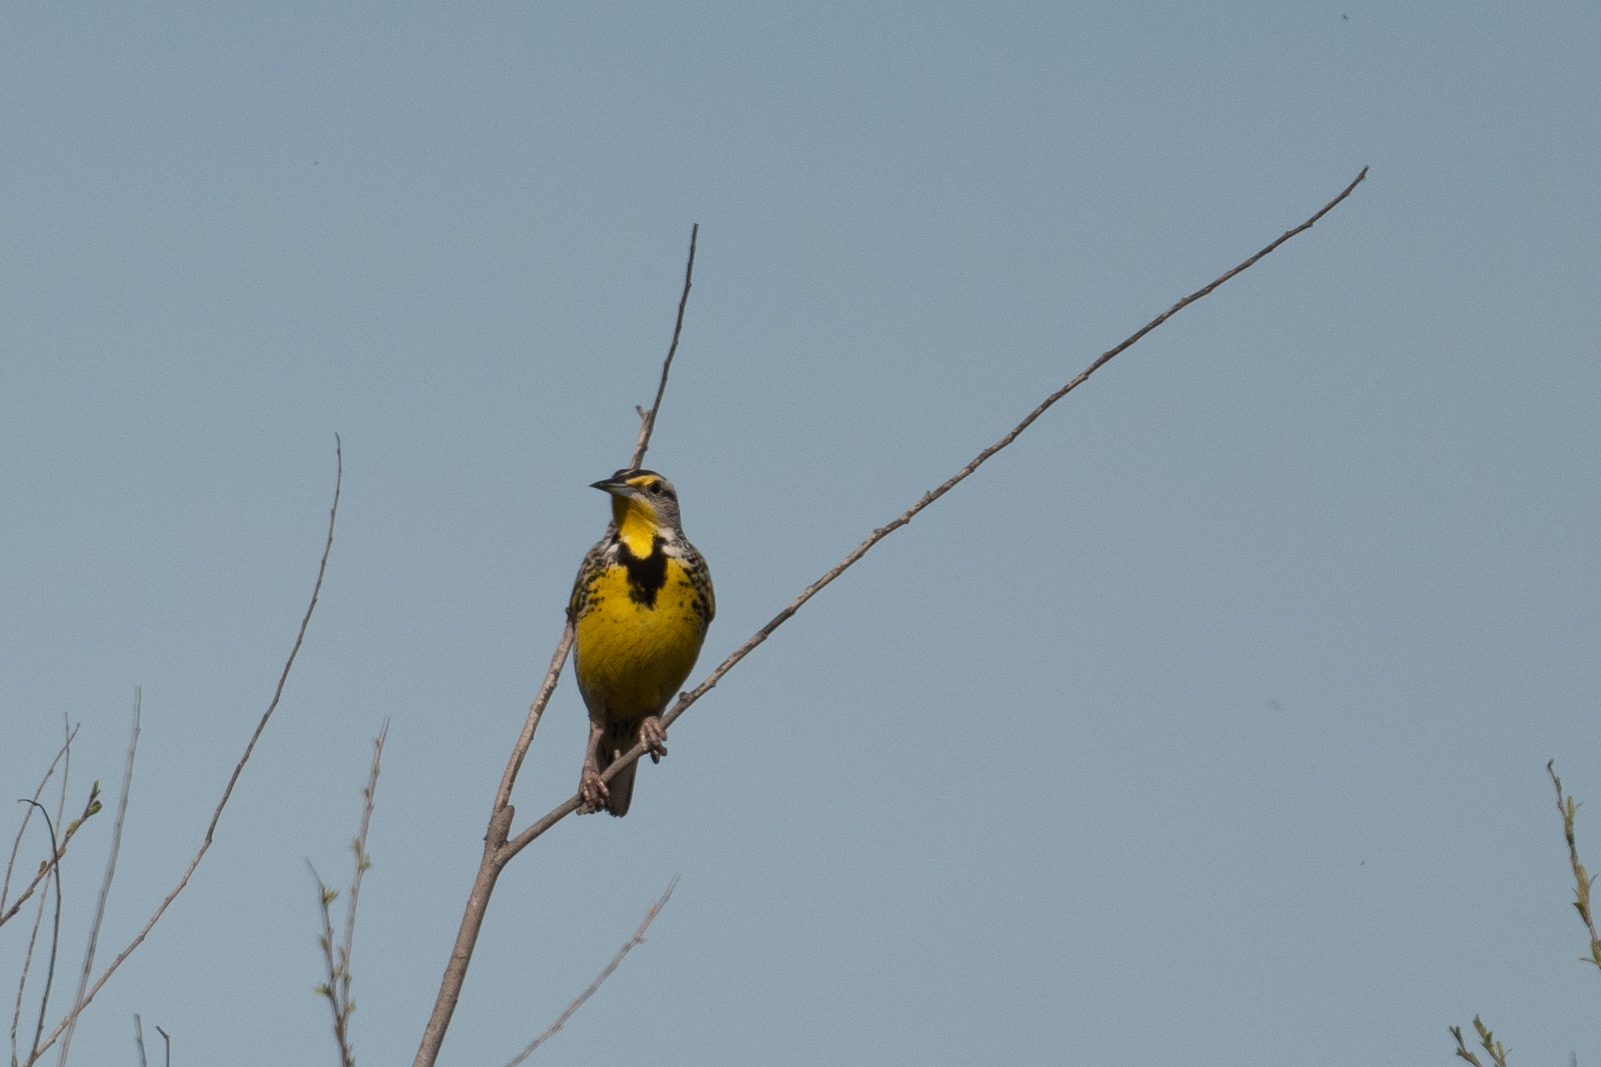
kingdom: Animalia
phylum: Chordata
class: Aves
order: Passeriformes
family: Icteridae
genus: Sturnella
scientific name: Sturnella neglecta
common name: Western meadowlark
